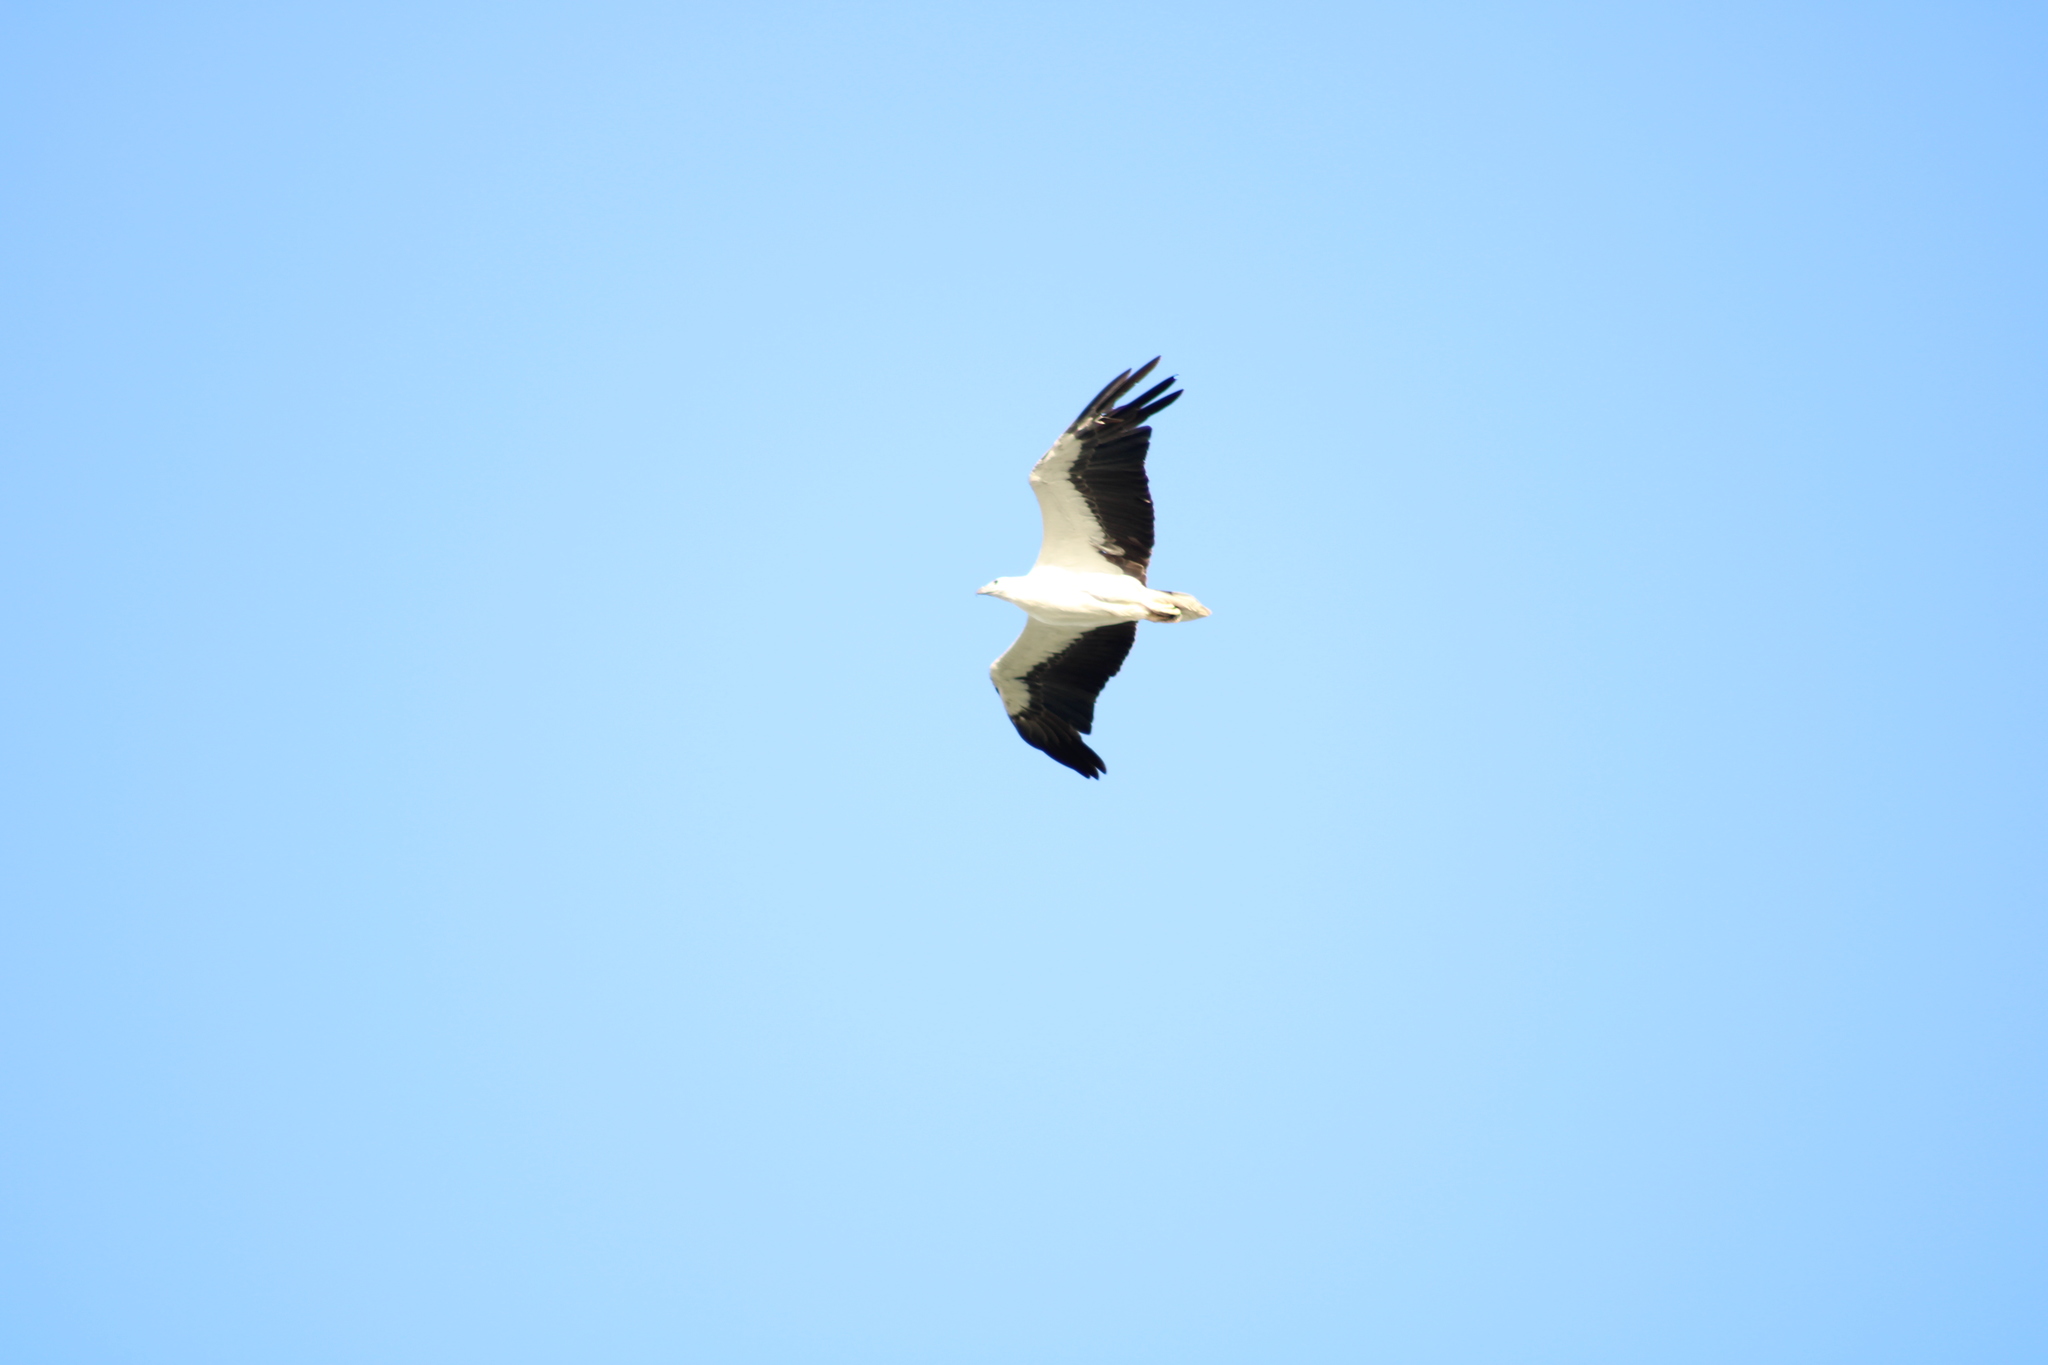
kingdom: Animalia
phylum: Chordata
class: Aves
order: Accipitriformes
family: Accipitridae
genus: Haliaeetus
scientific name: Haliaeetus leucogaster
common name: White-bellied sea eagle
